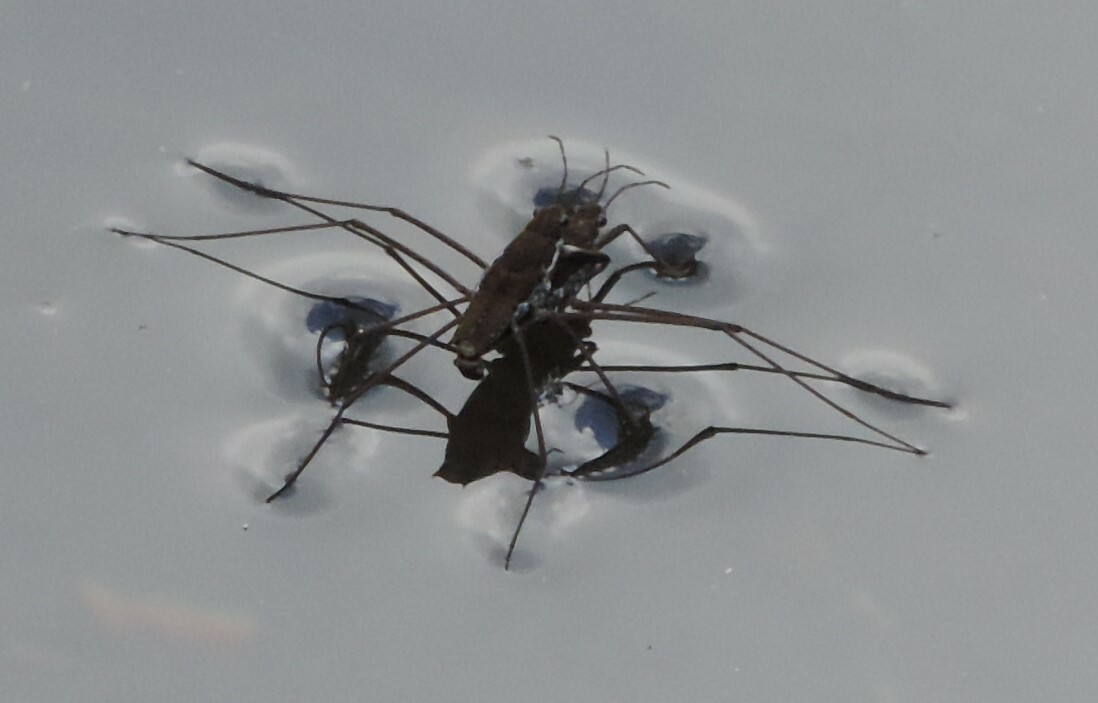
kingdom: Animalia
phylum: Arthropoda
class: Insecta
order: Hemiptera
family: Gerridae
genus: Aquarius
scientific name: Aquarius remigis
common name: Common water strider
